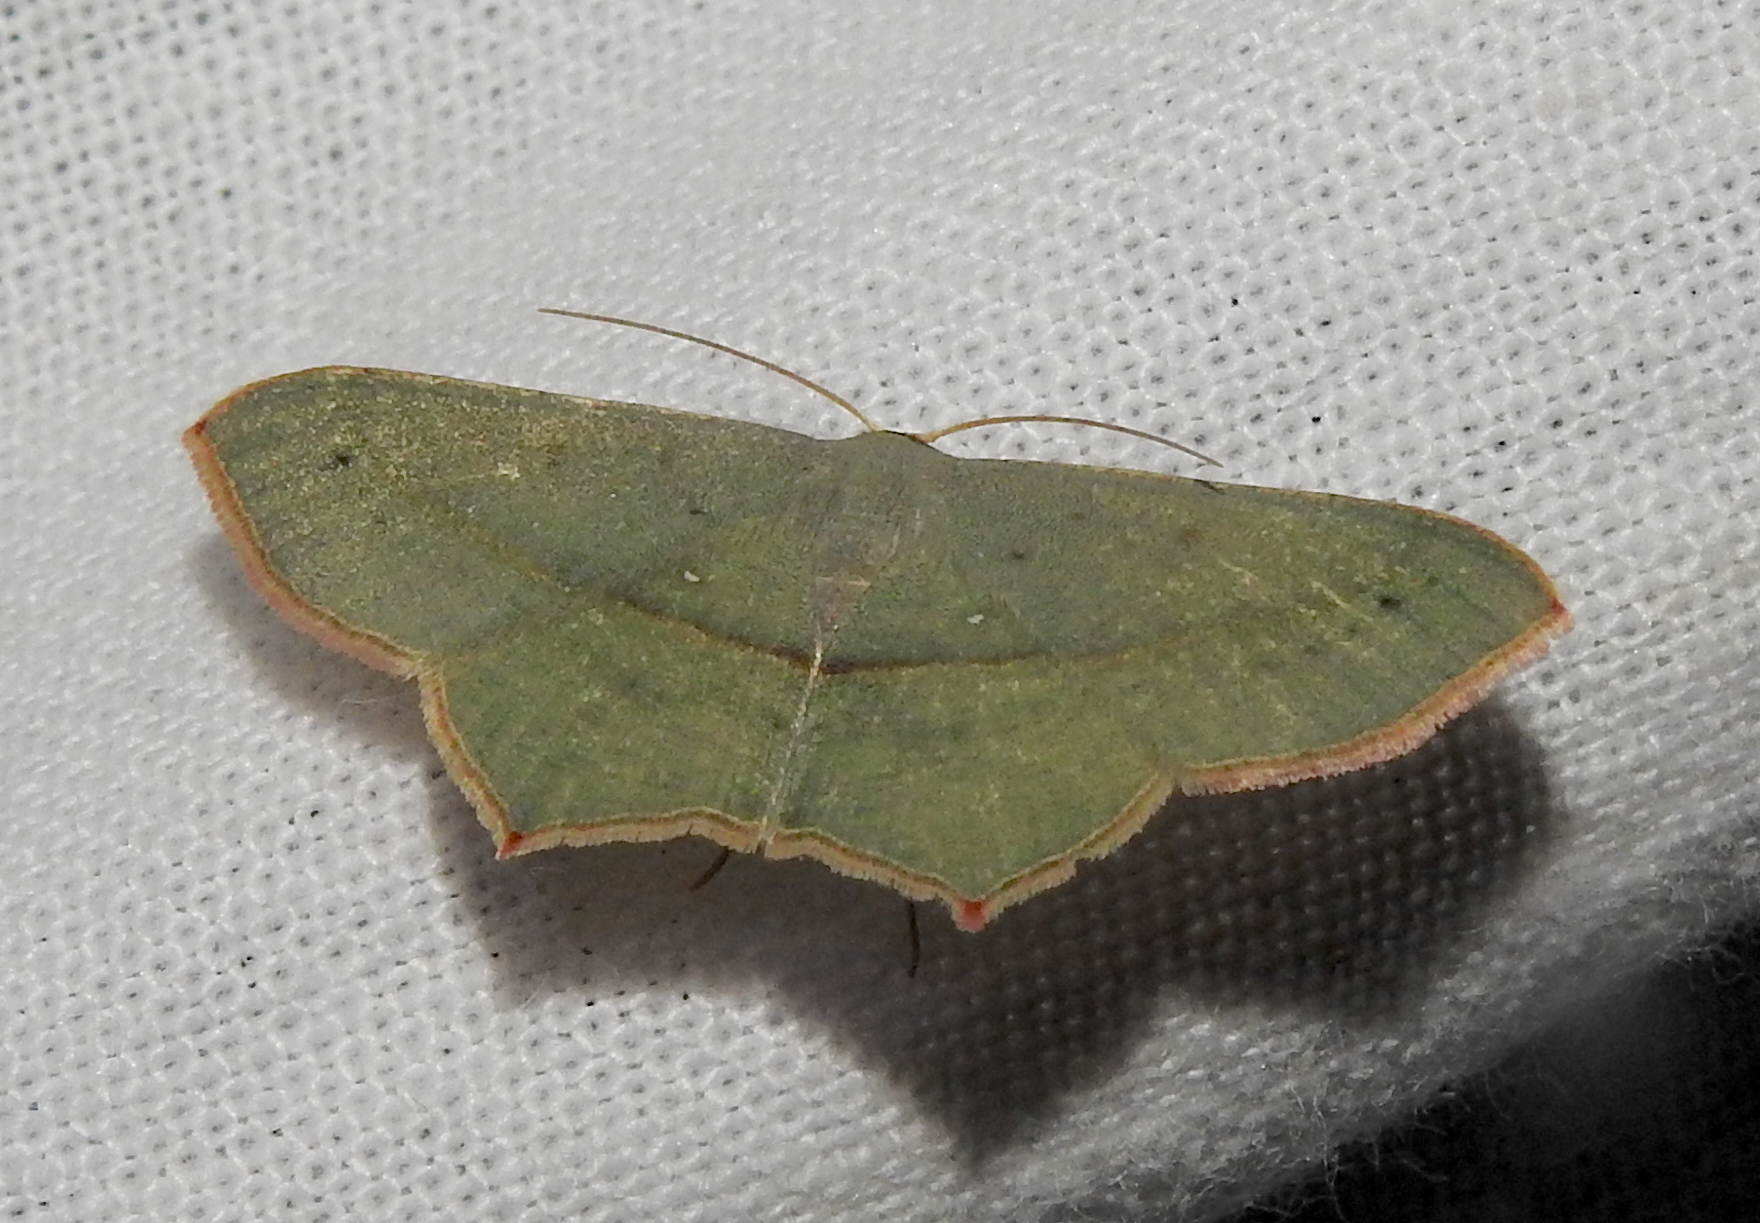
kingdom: Animalia
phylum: Arthropoda
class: Insecta
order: Lepidoptera
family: Geometridae
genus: Traminda
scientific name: Traminda mundissima
